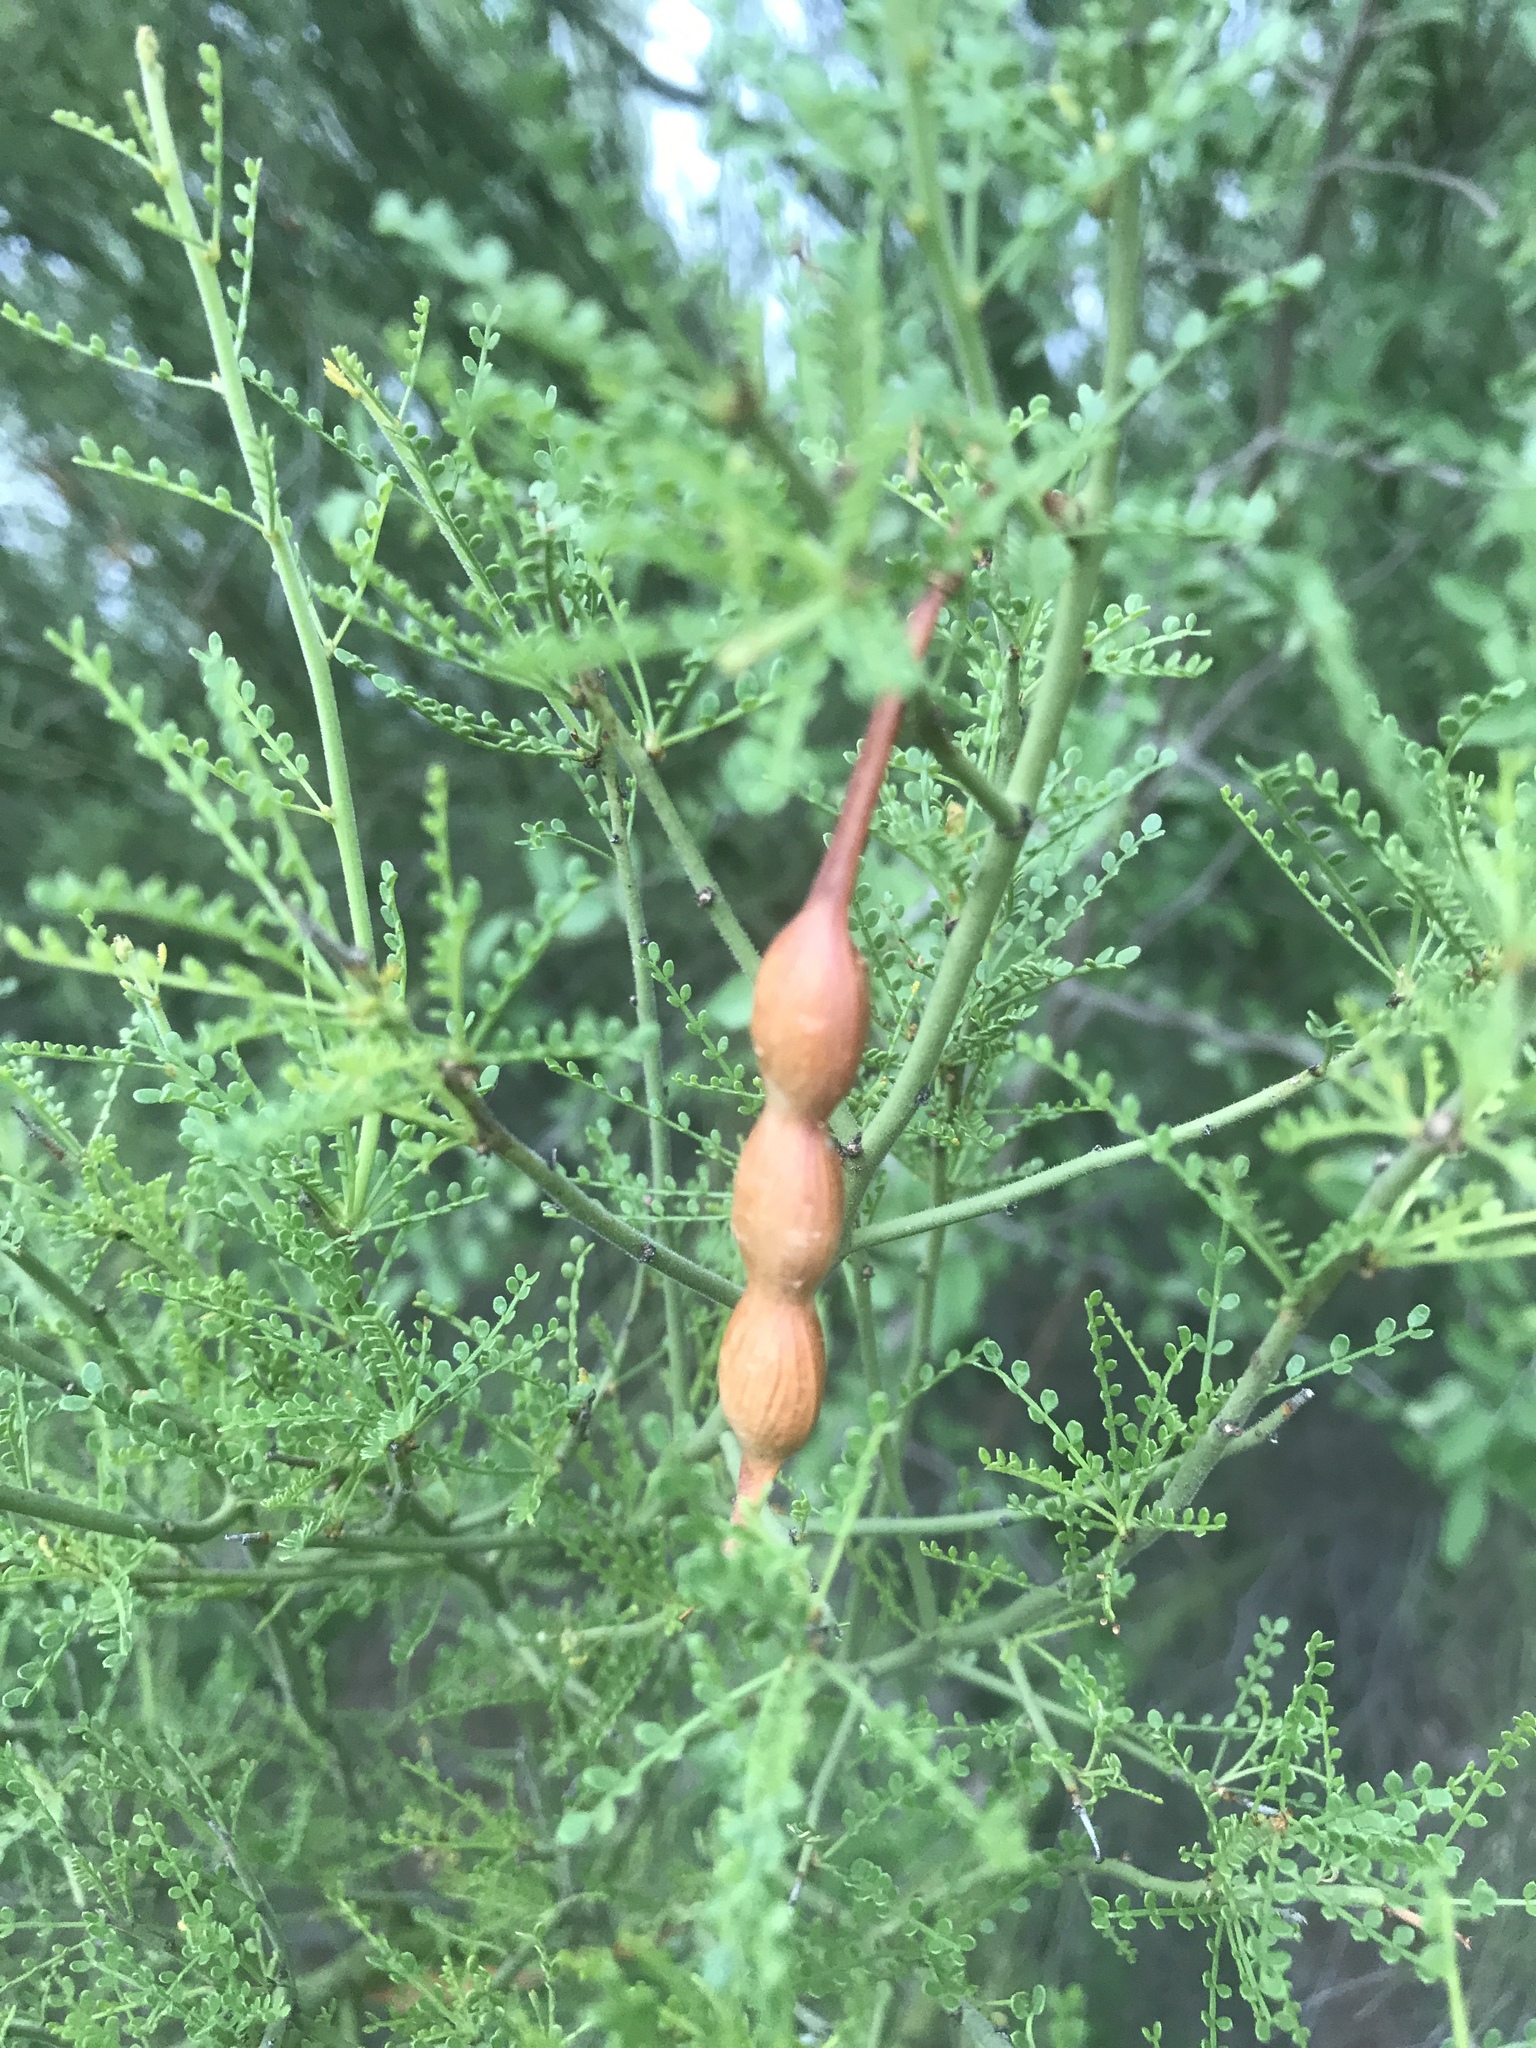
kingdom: Plantae
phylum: Tracheophyta
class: Magnoliopsida
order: Fabales
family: Fabaceae
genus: Parkinsonia
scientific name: Parkinsonia microphylla
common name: Yellow paloverde
